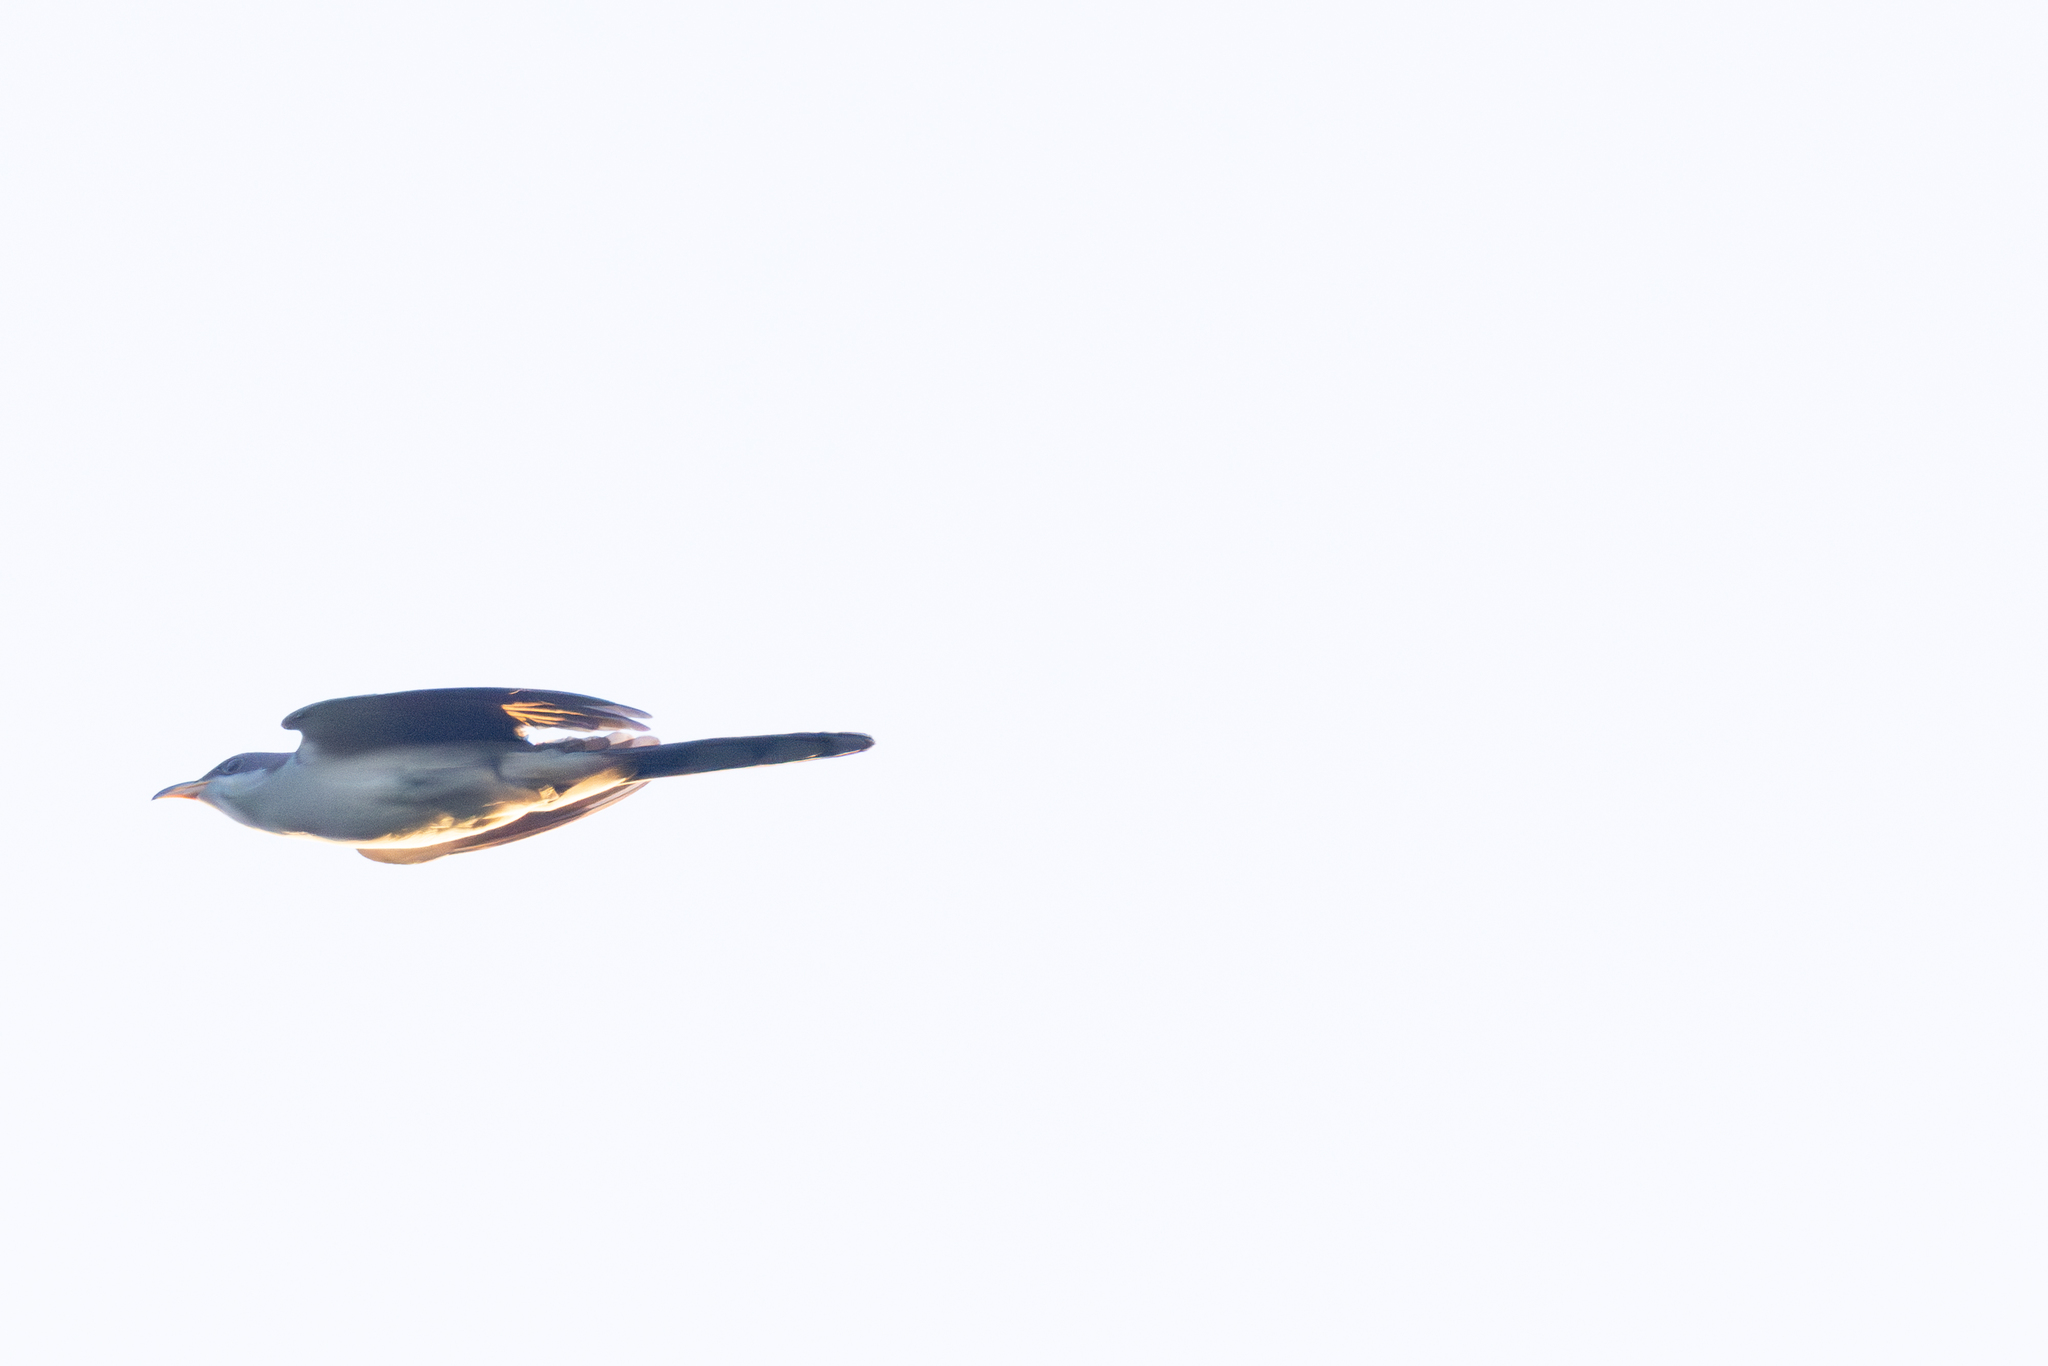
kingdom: Animalia
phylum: Chordata
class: Aves
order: Cuculiformes
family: Cuculidae
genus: Coccyzus
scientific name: Coccyzus americanus
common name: Yellow-billed cuckoo
